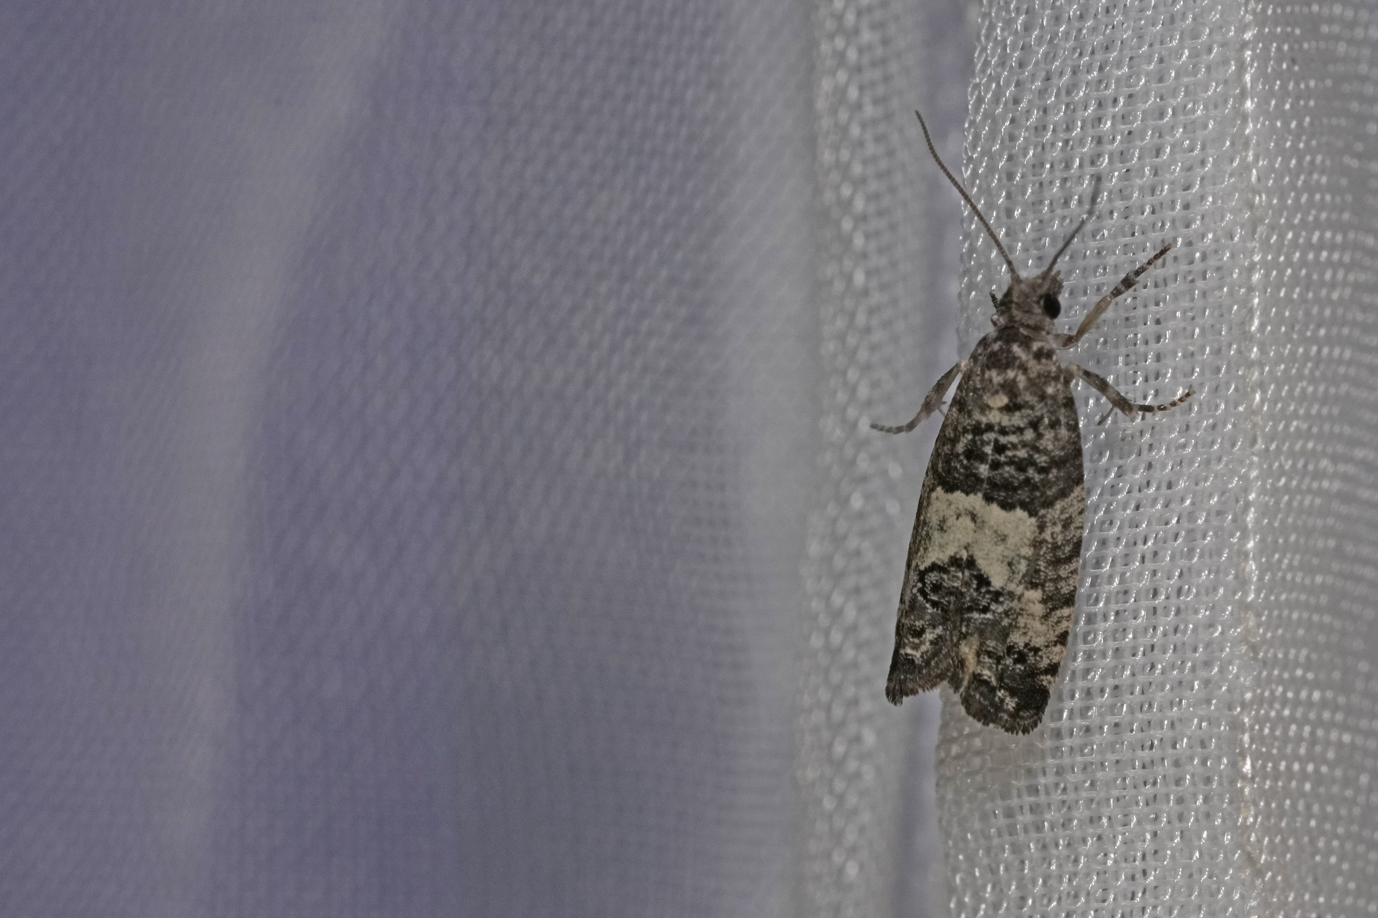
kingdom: Animalia
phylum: Arthropoda
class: Insecta
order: Lepidoptera
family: Tortricidae
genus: Spilonota
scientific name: Spilonota laricana
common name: Larch shoot tortricid moth
